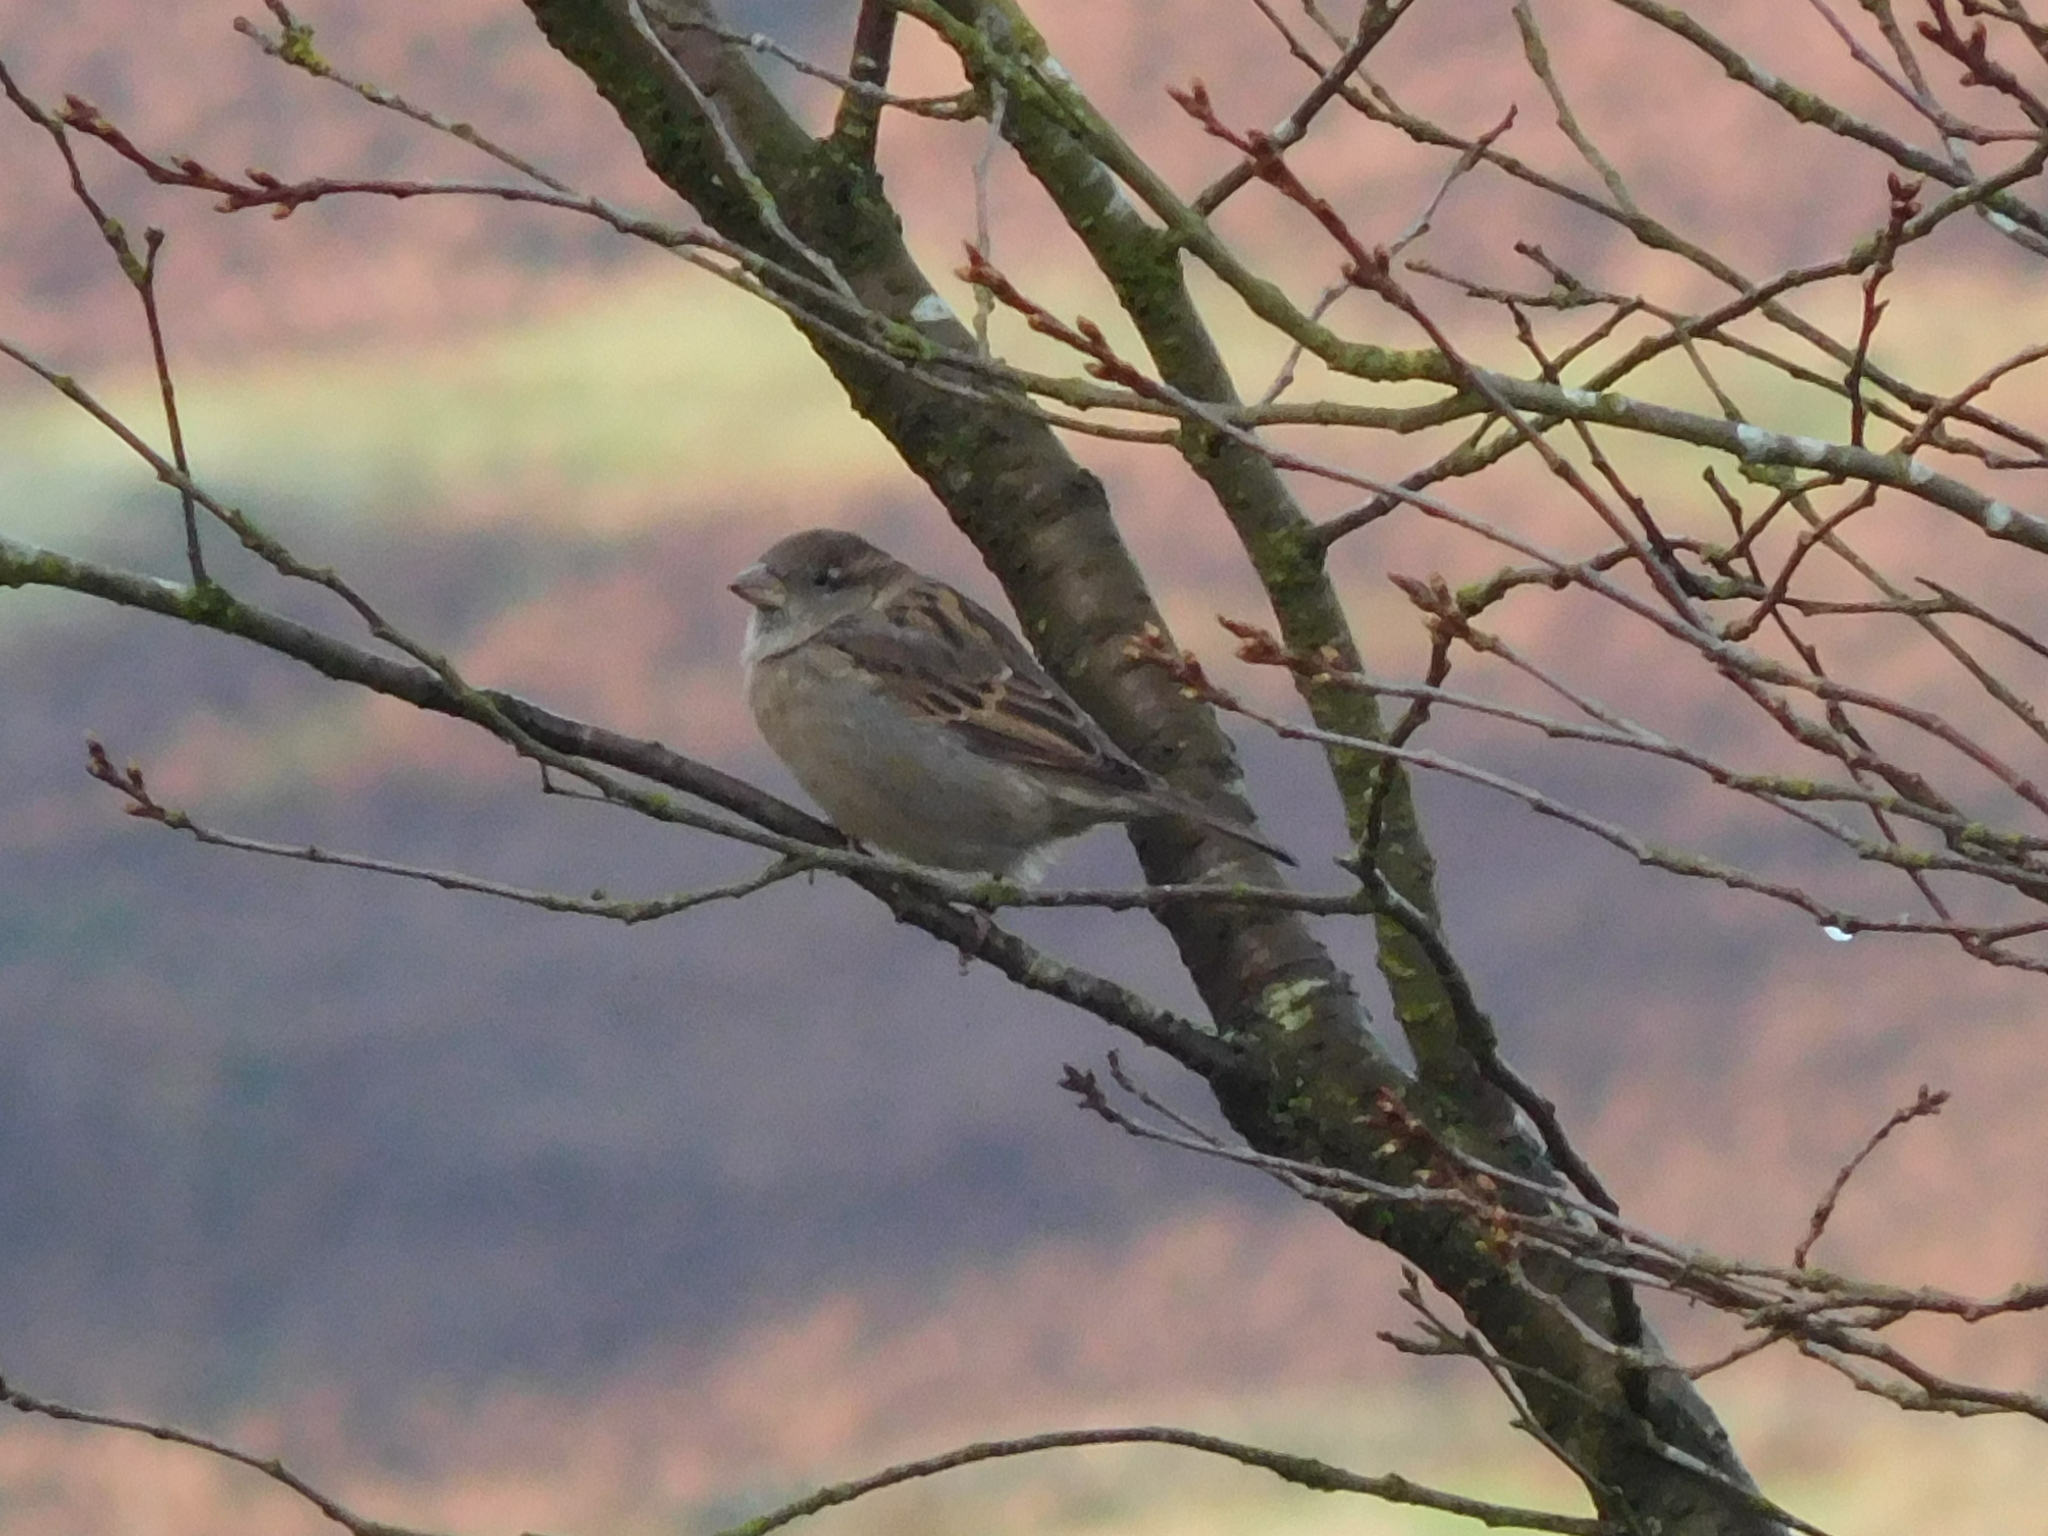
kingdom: Animalia
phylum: Chordata
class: Aves
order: Passeriformes
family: Passeridae
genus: Passer
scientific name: Passer domesticus
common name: House sparrow
